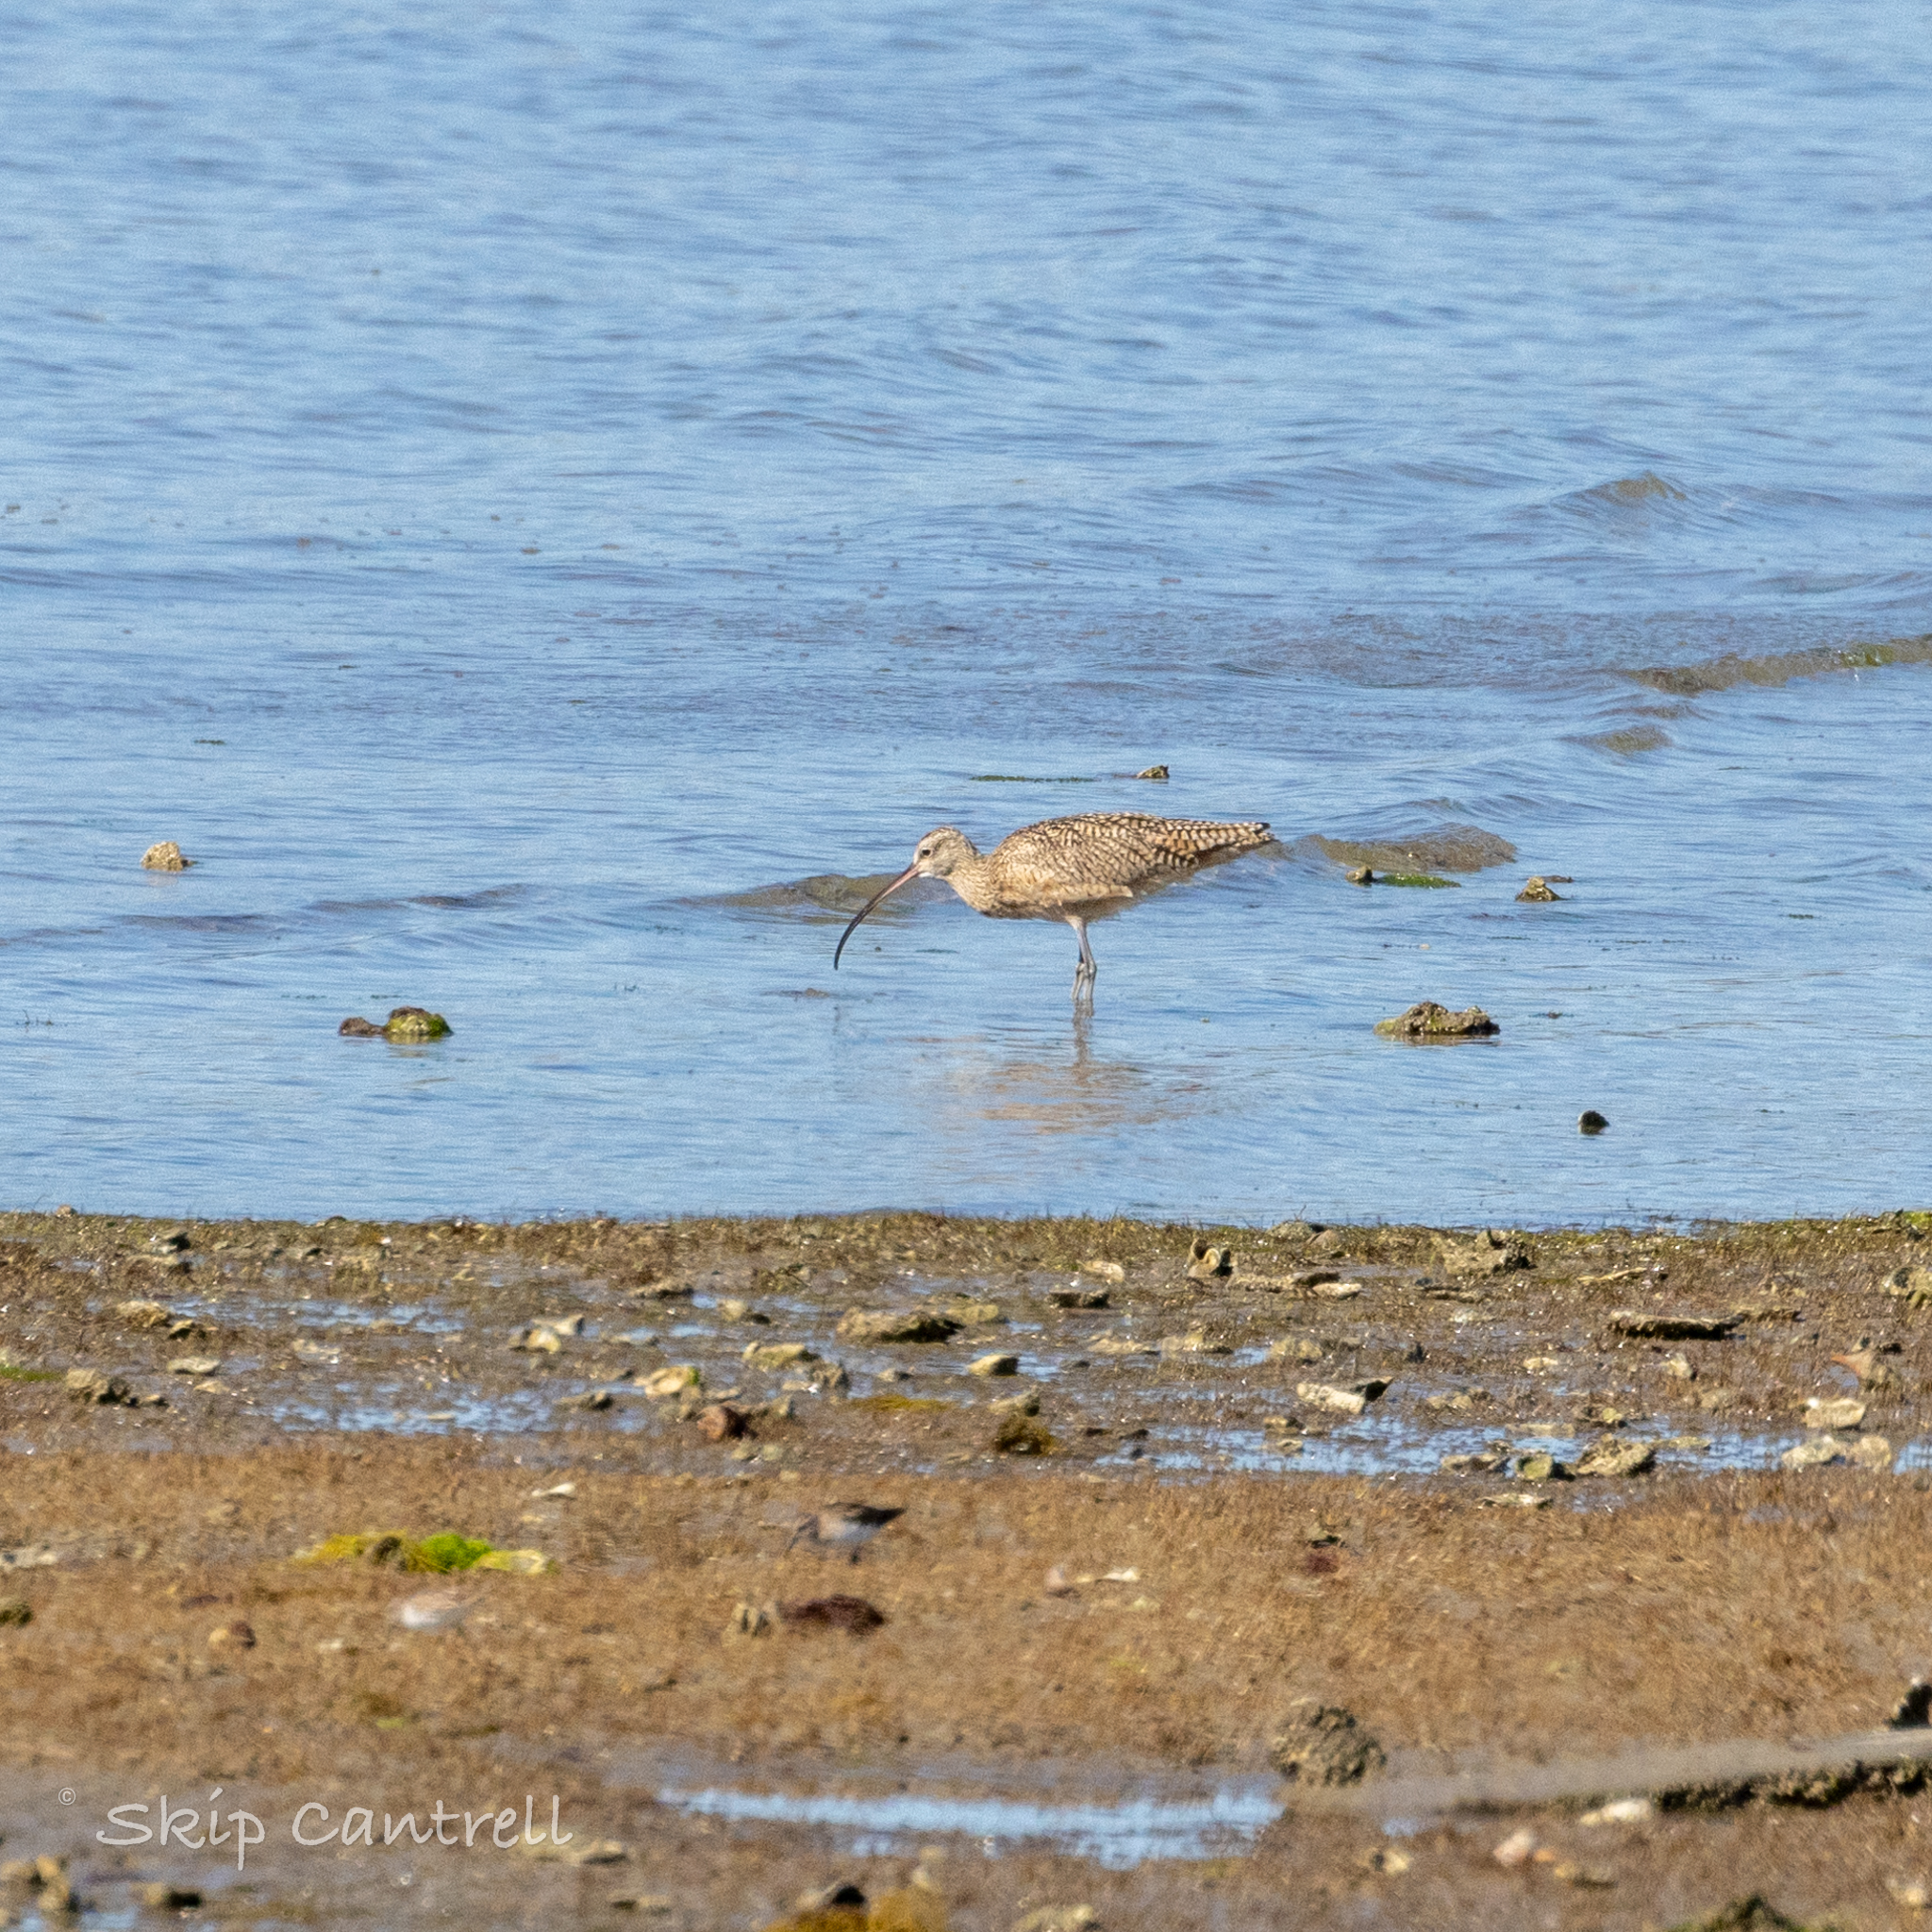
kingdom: Animalia
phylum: Chordata
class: Aves
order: Charadriiformes
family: Scolopacidae
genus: Numenius
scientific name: Numenius americanus
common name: Long-billed curlew
